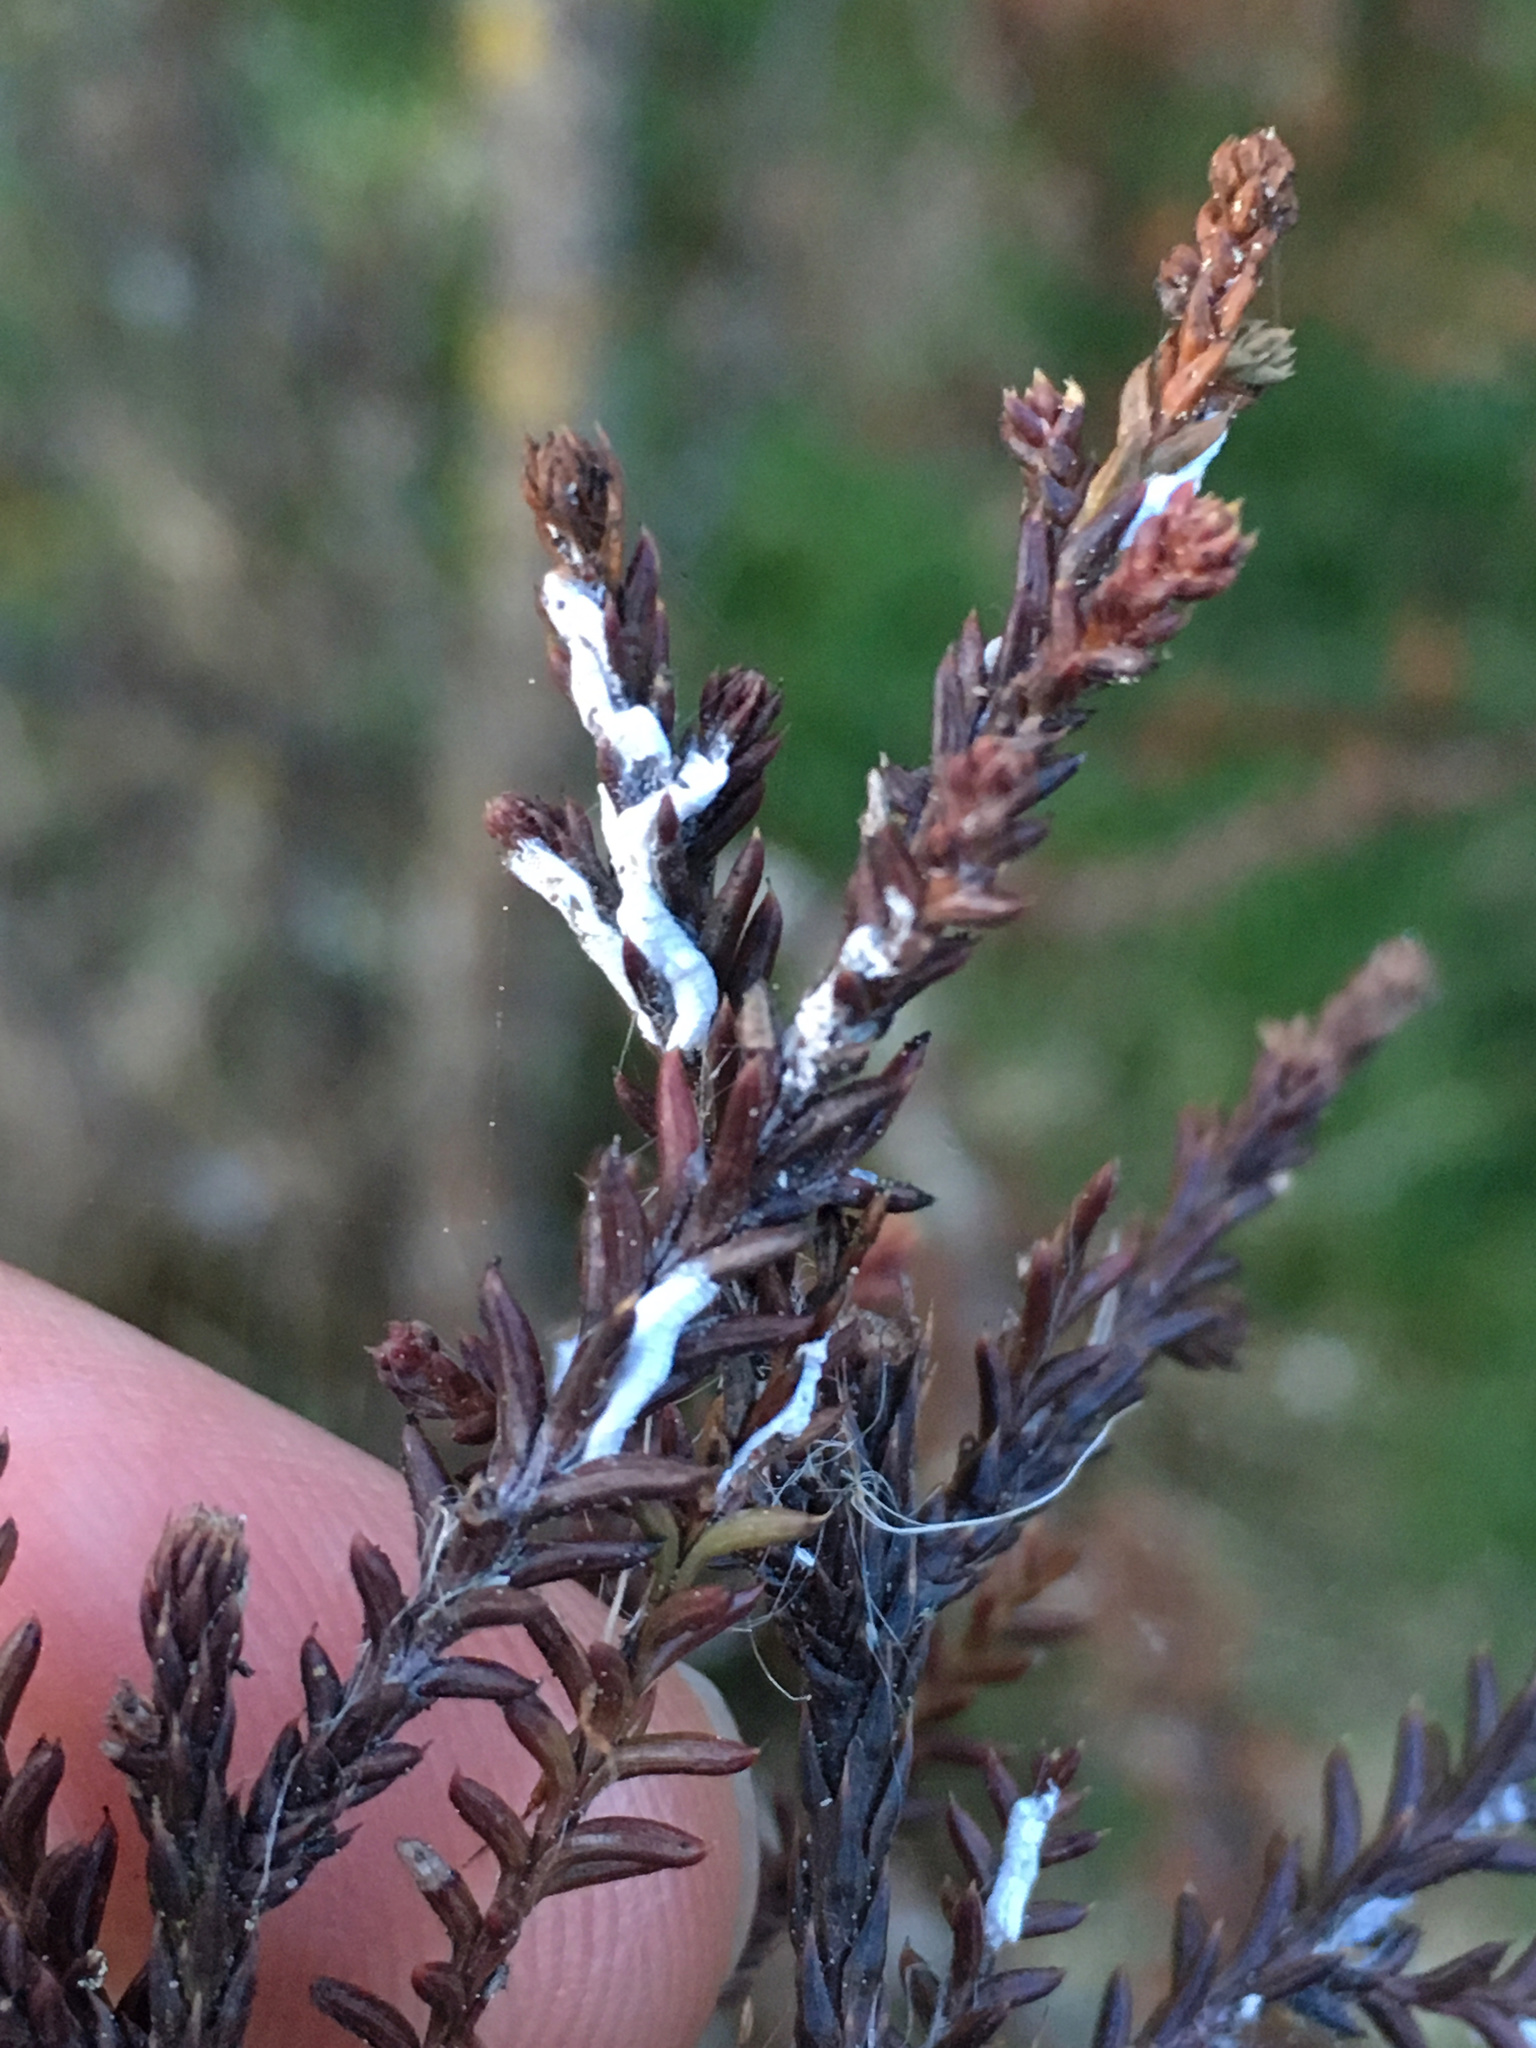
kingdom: Animalia
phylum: Arthropoda
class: Insecta
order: Hemiptera
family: Pseudococcidae
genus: Paraferrisia
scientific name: Paraferrisia podocarpi
